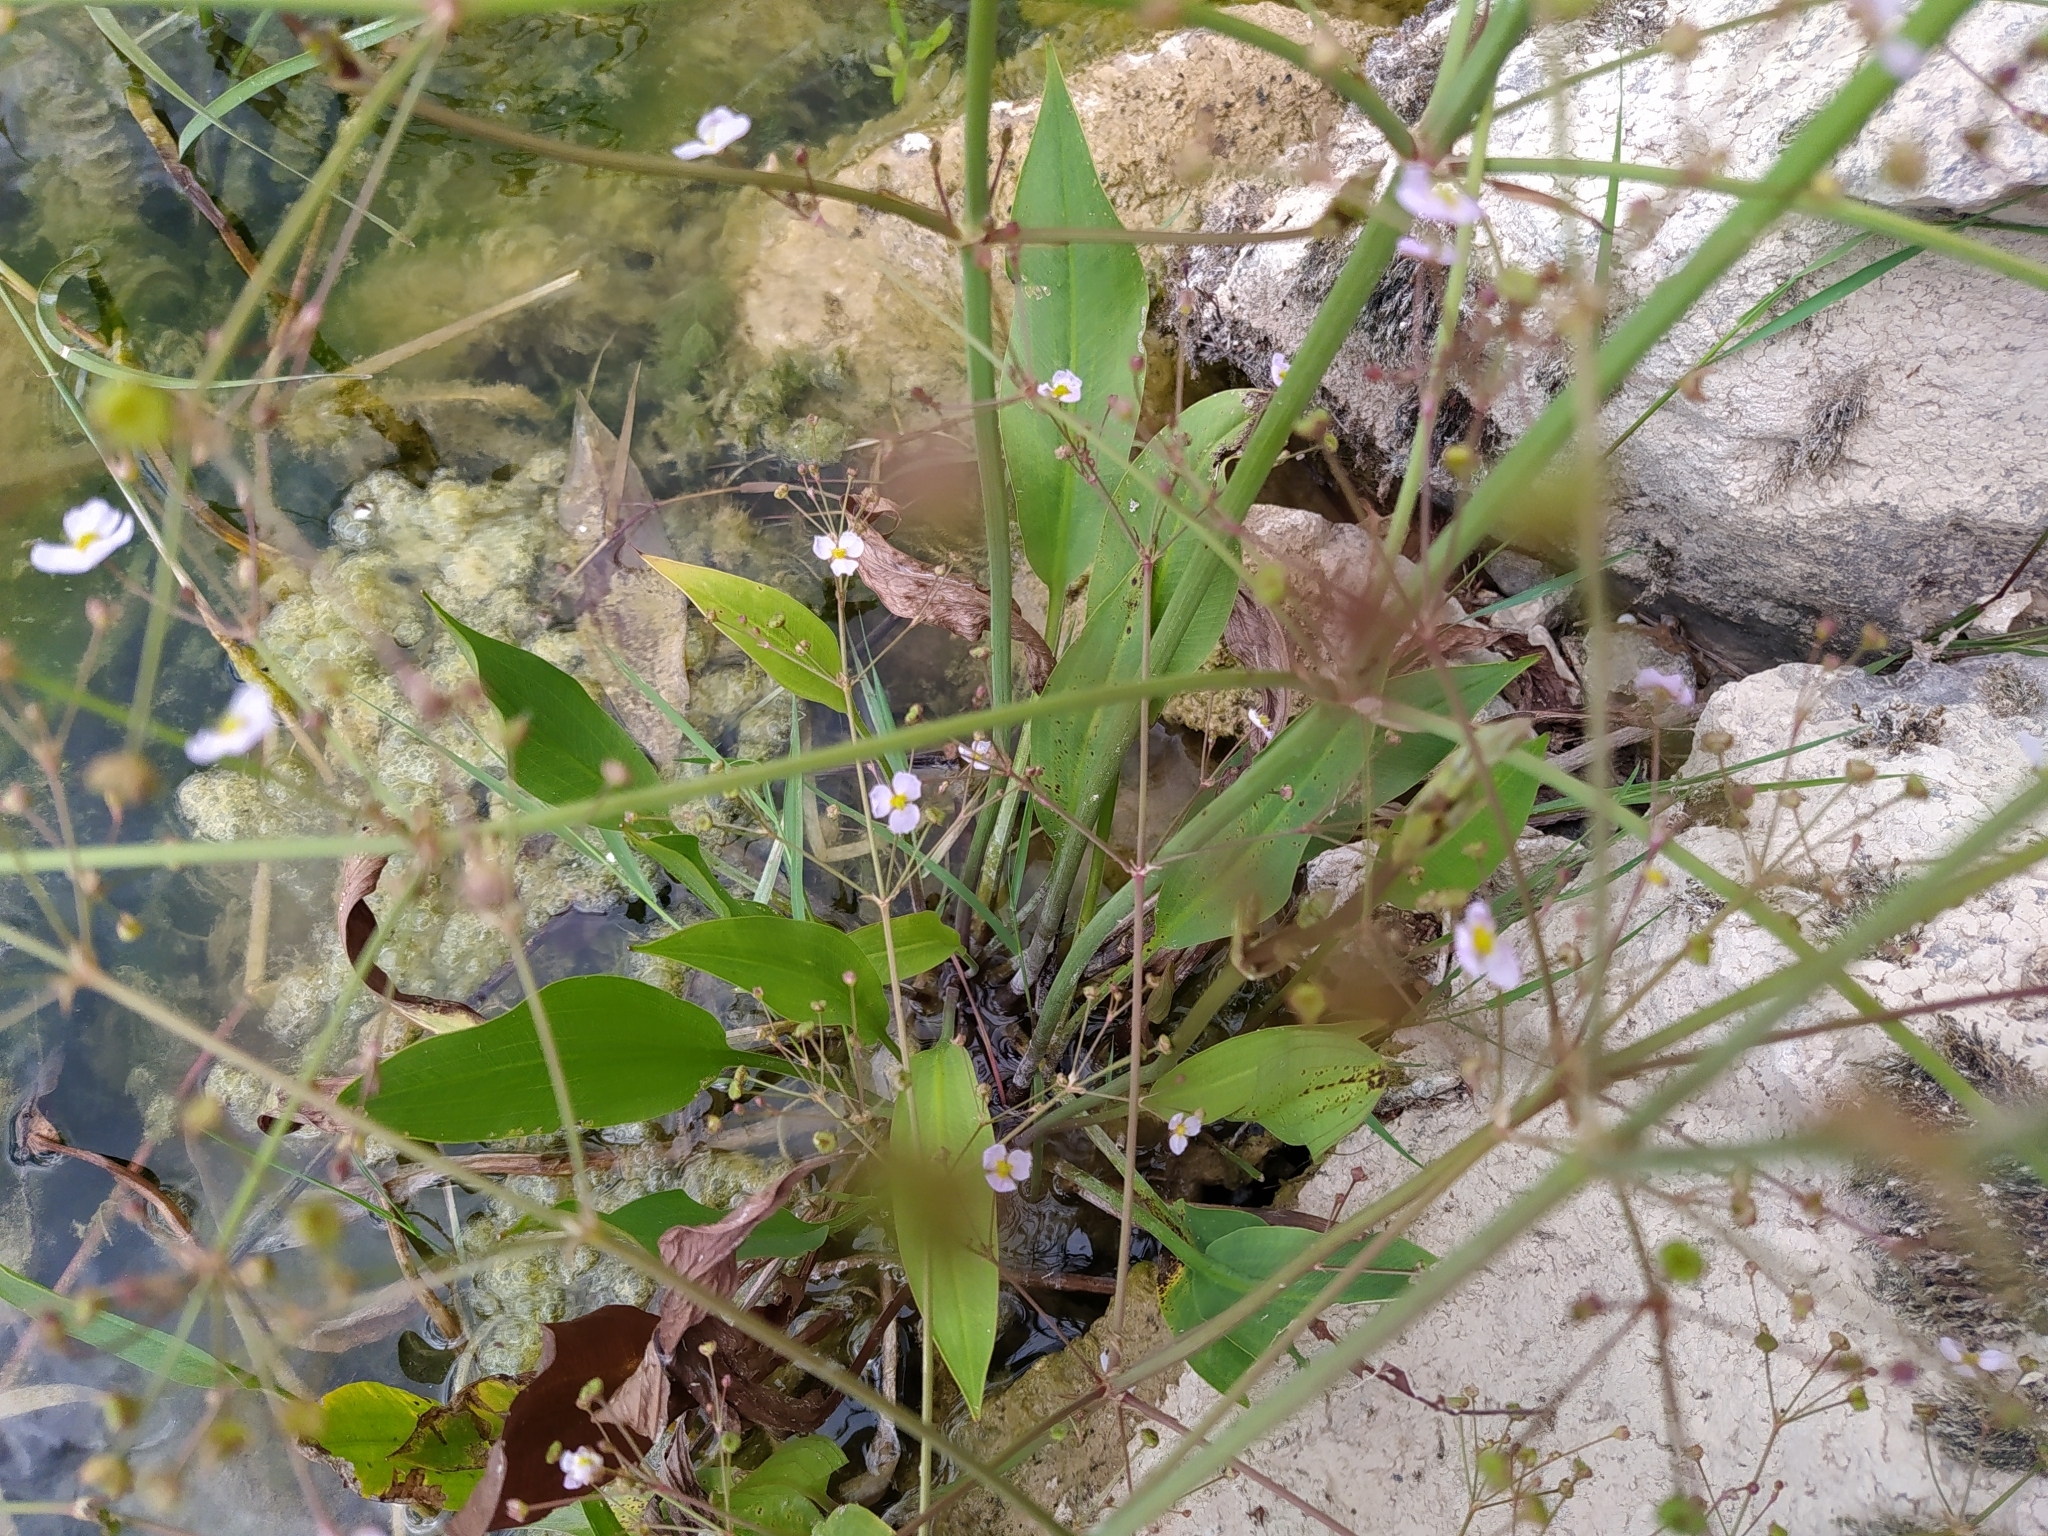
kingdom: Plantae
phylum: Tracheophyta
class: Liliopsida
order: Alismatales
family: Alismataceae
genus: Alisma
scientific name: Alisma plantago-aquatica
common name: Water-plantain
